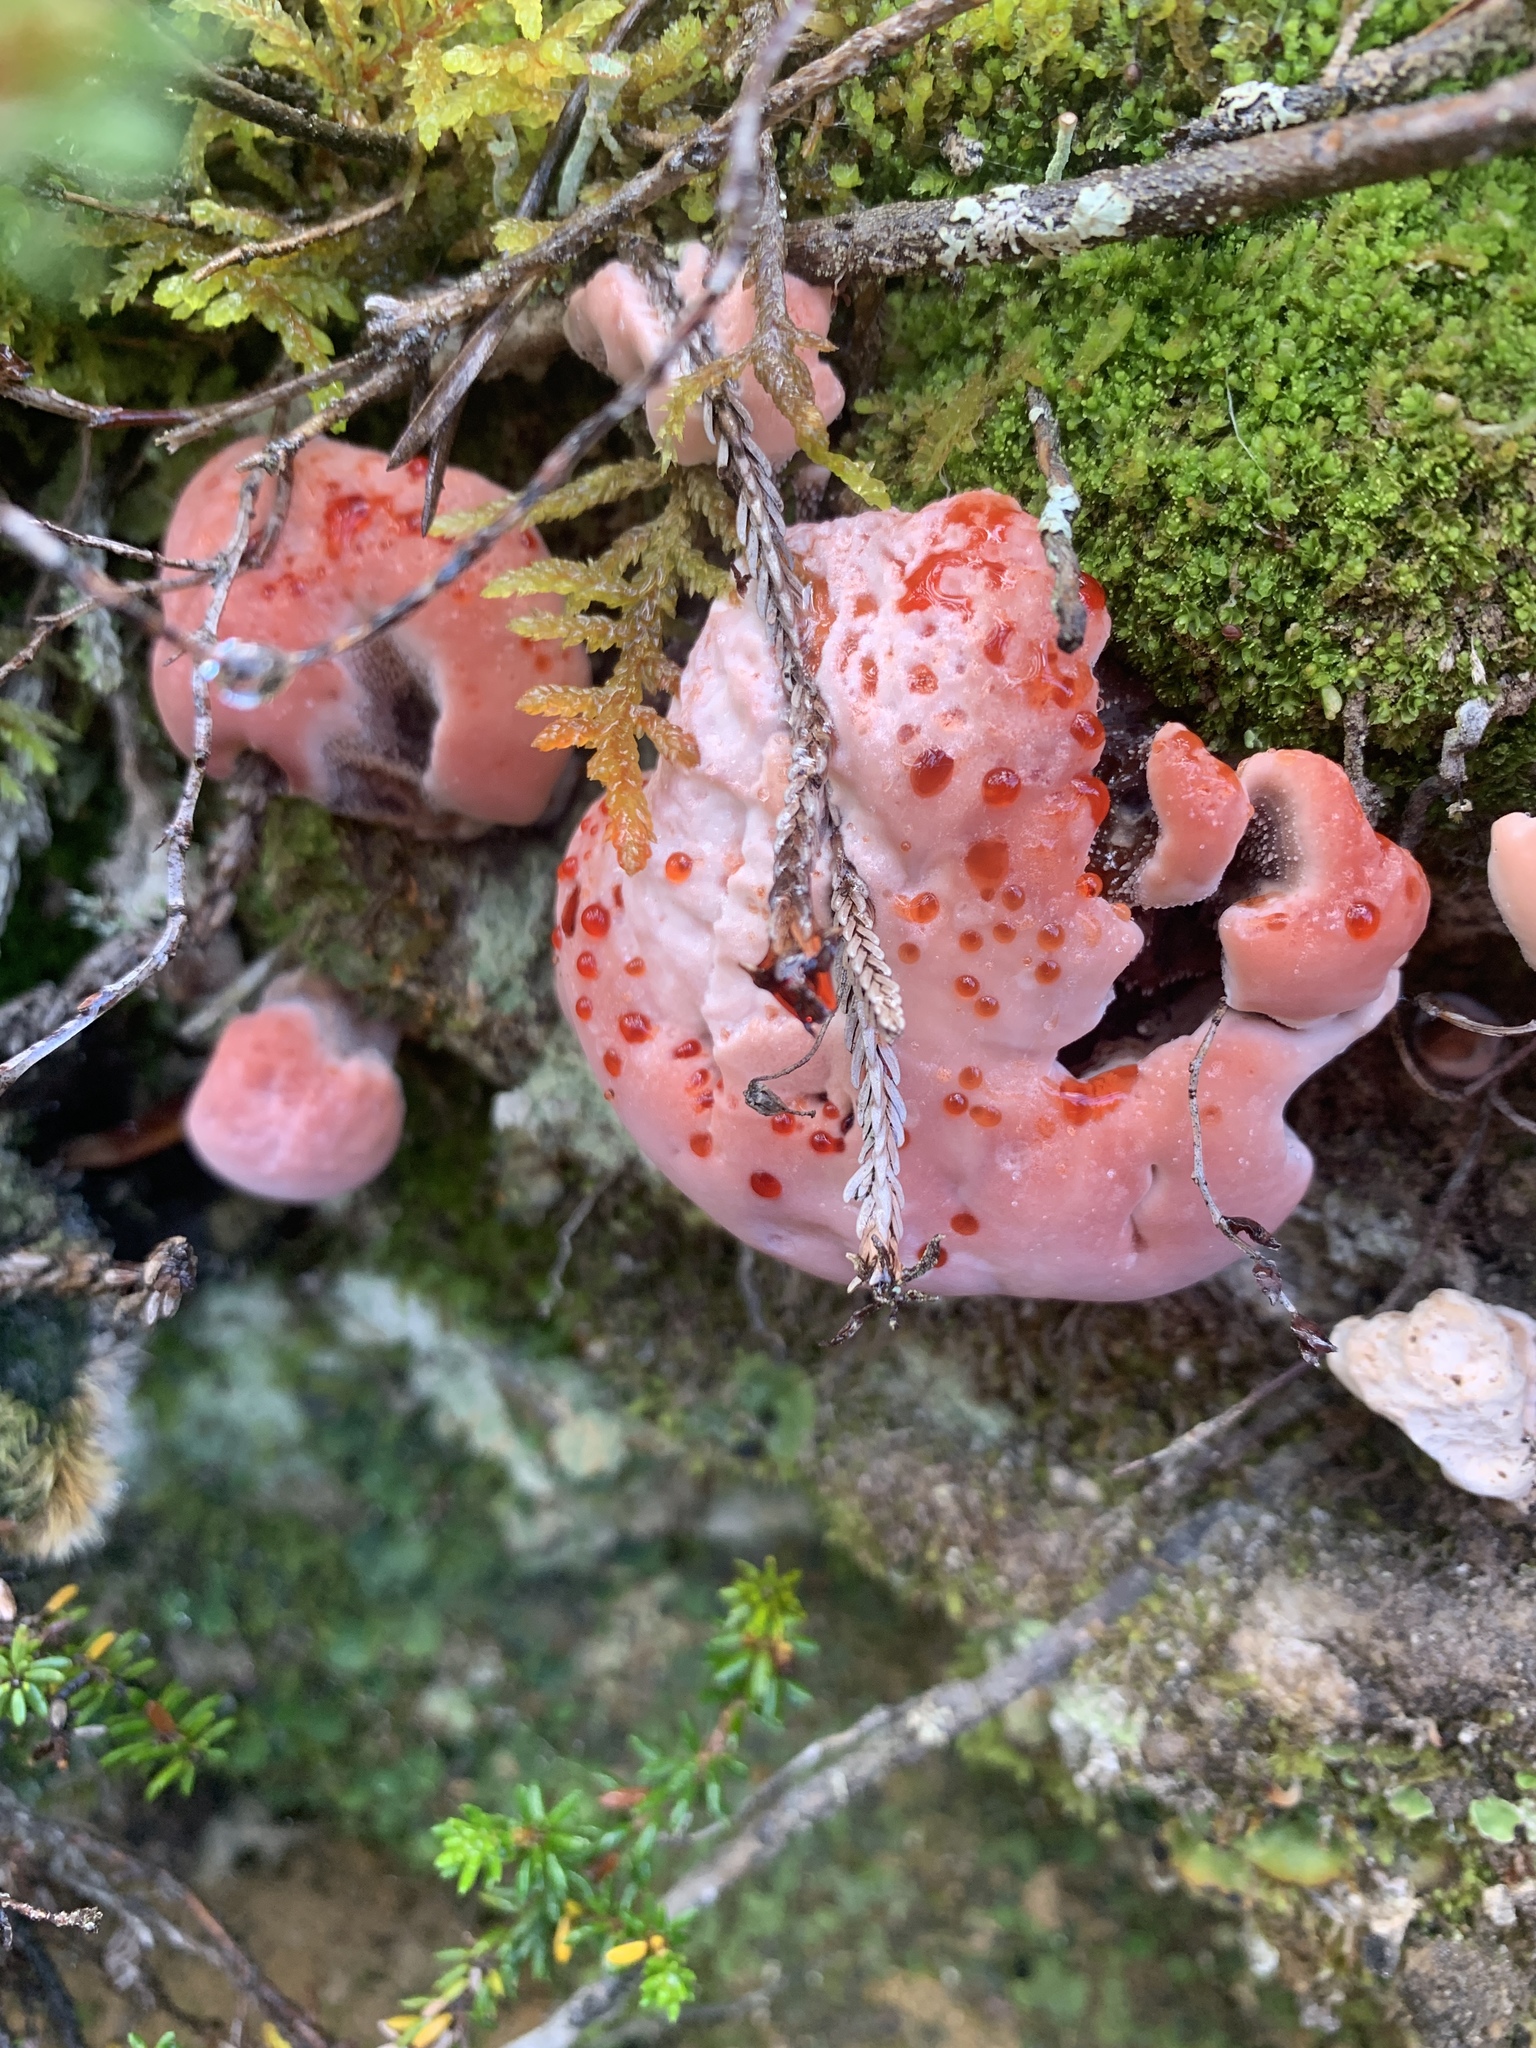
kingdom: Fungi
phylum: Basidiomycota
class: Agaricomycetes
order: Thelephorales
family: Bankeraceae
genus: Hydnellum
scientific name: Hydnellum peckii
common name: Devil's tooth
